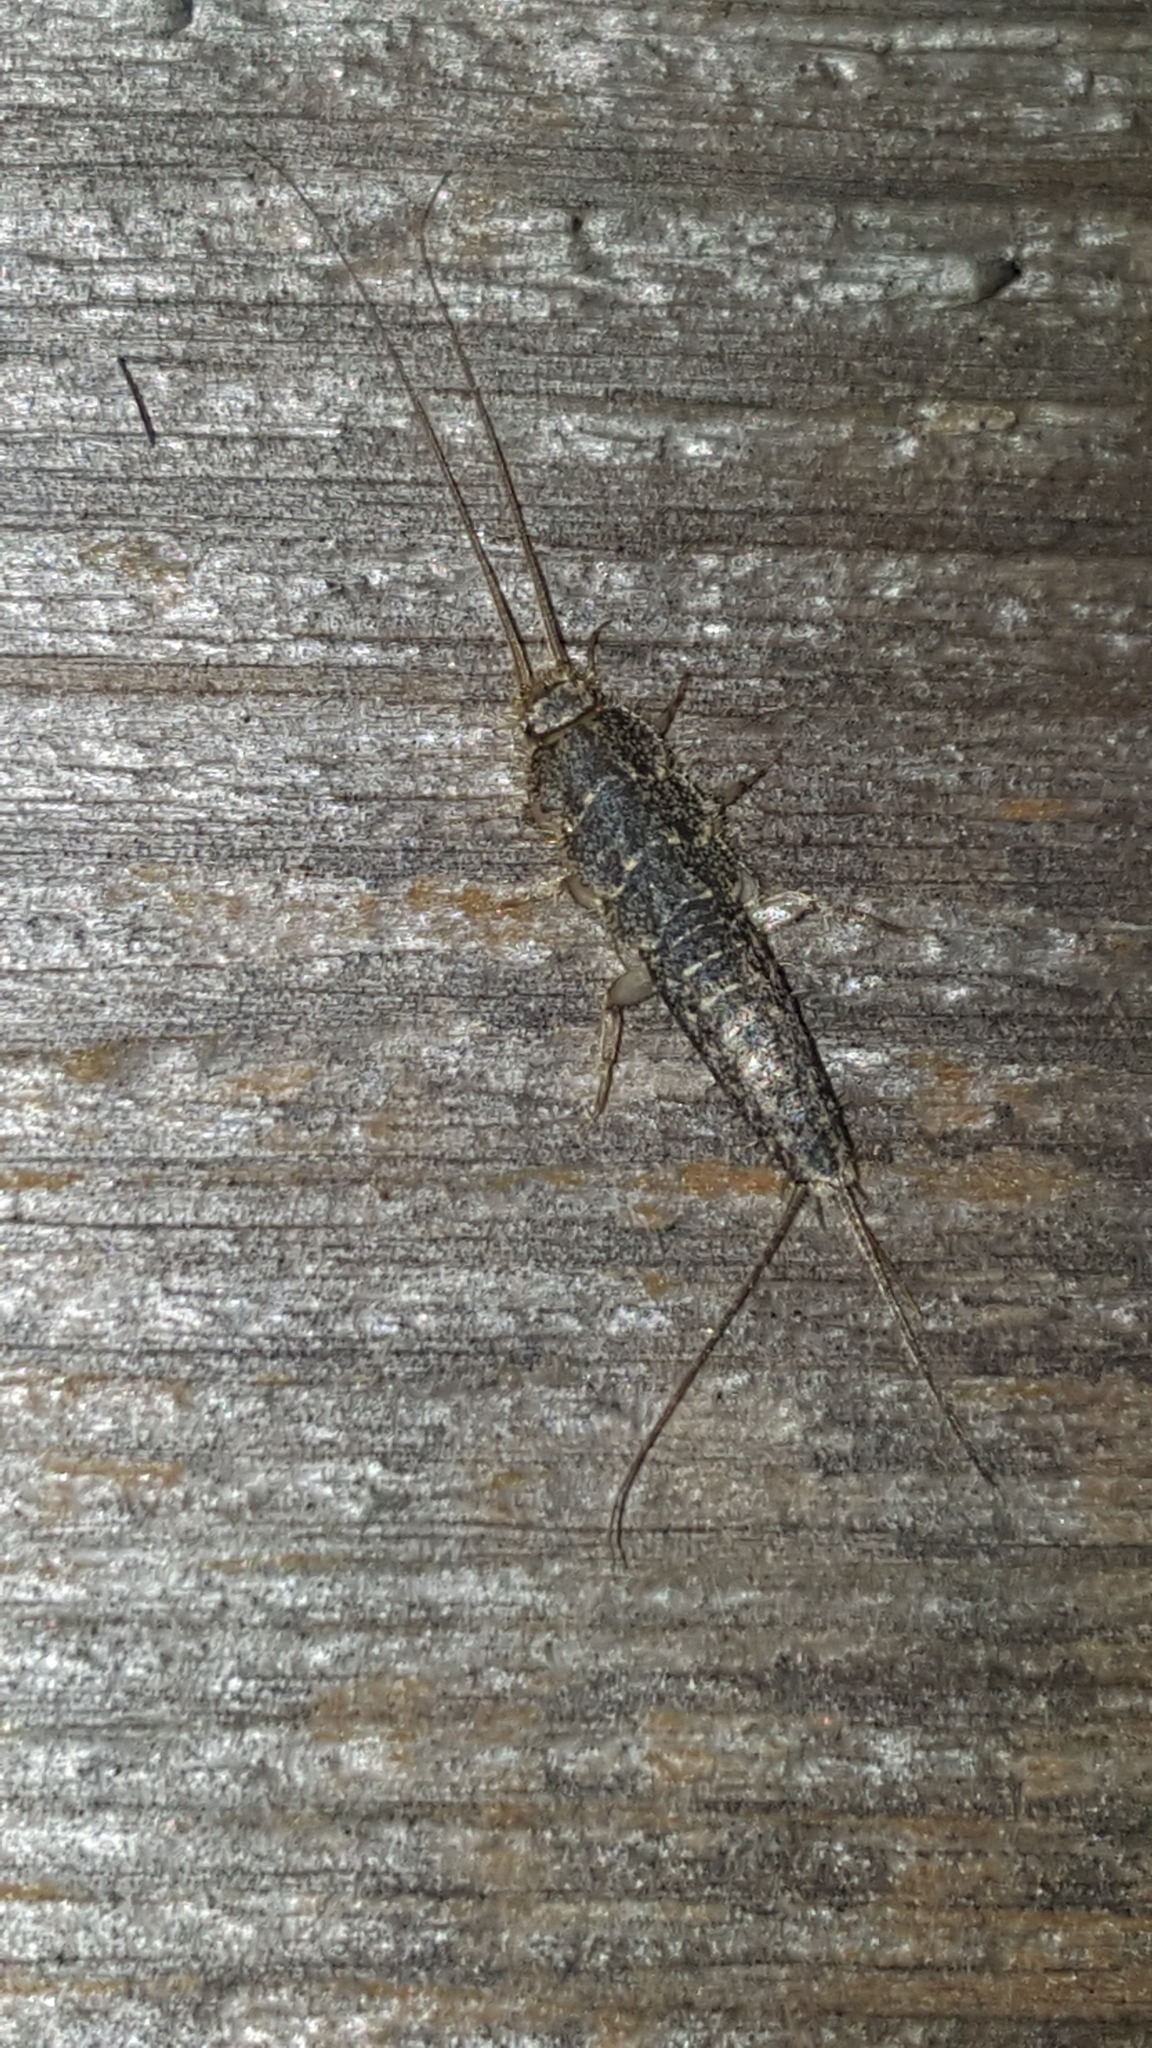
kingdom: Animalia
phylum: Arthropoda
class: Insecta
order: Zygentoma
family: Lepismatidae
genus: Ctenolepisma
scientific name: Ctenolepisma lineata
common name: Four-lined silverfish
